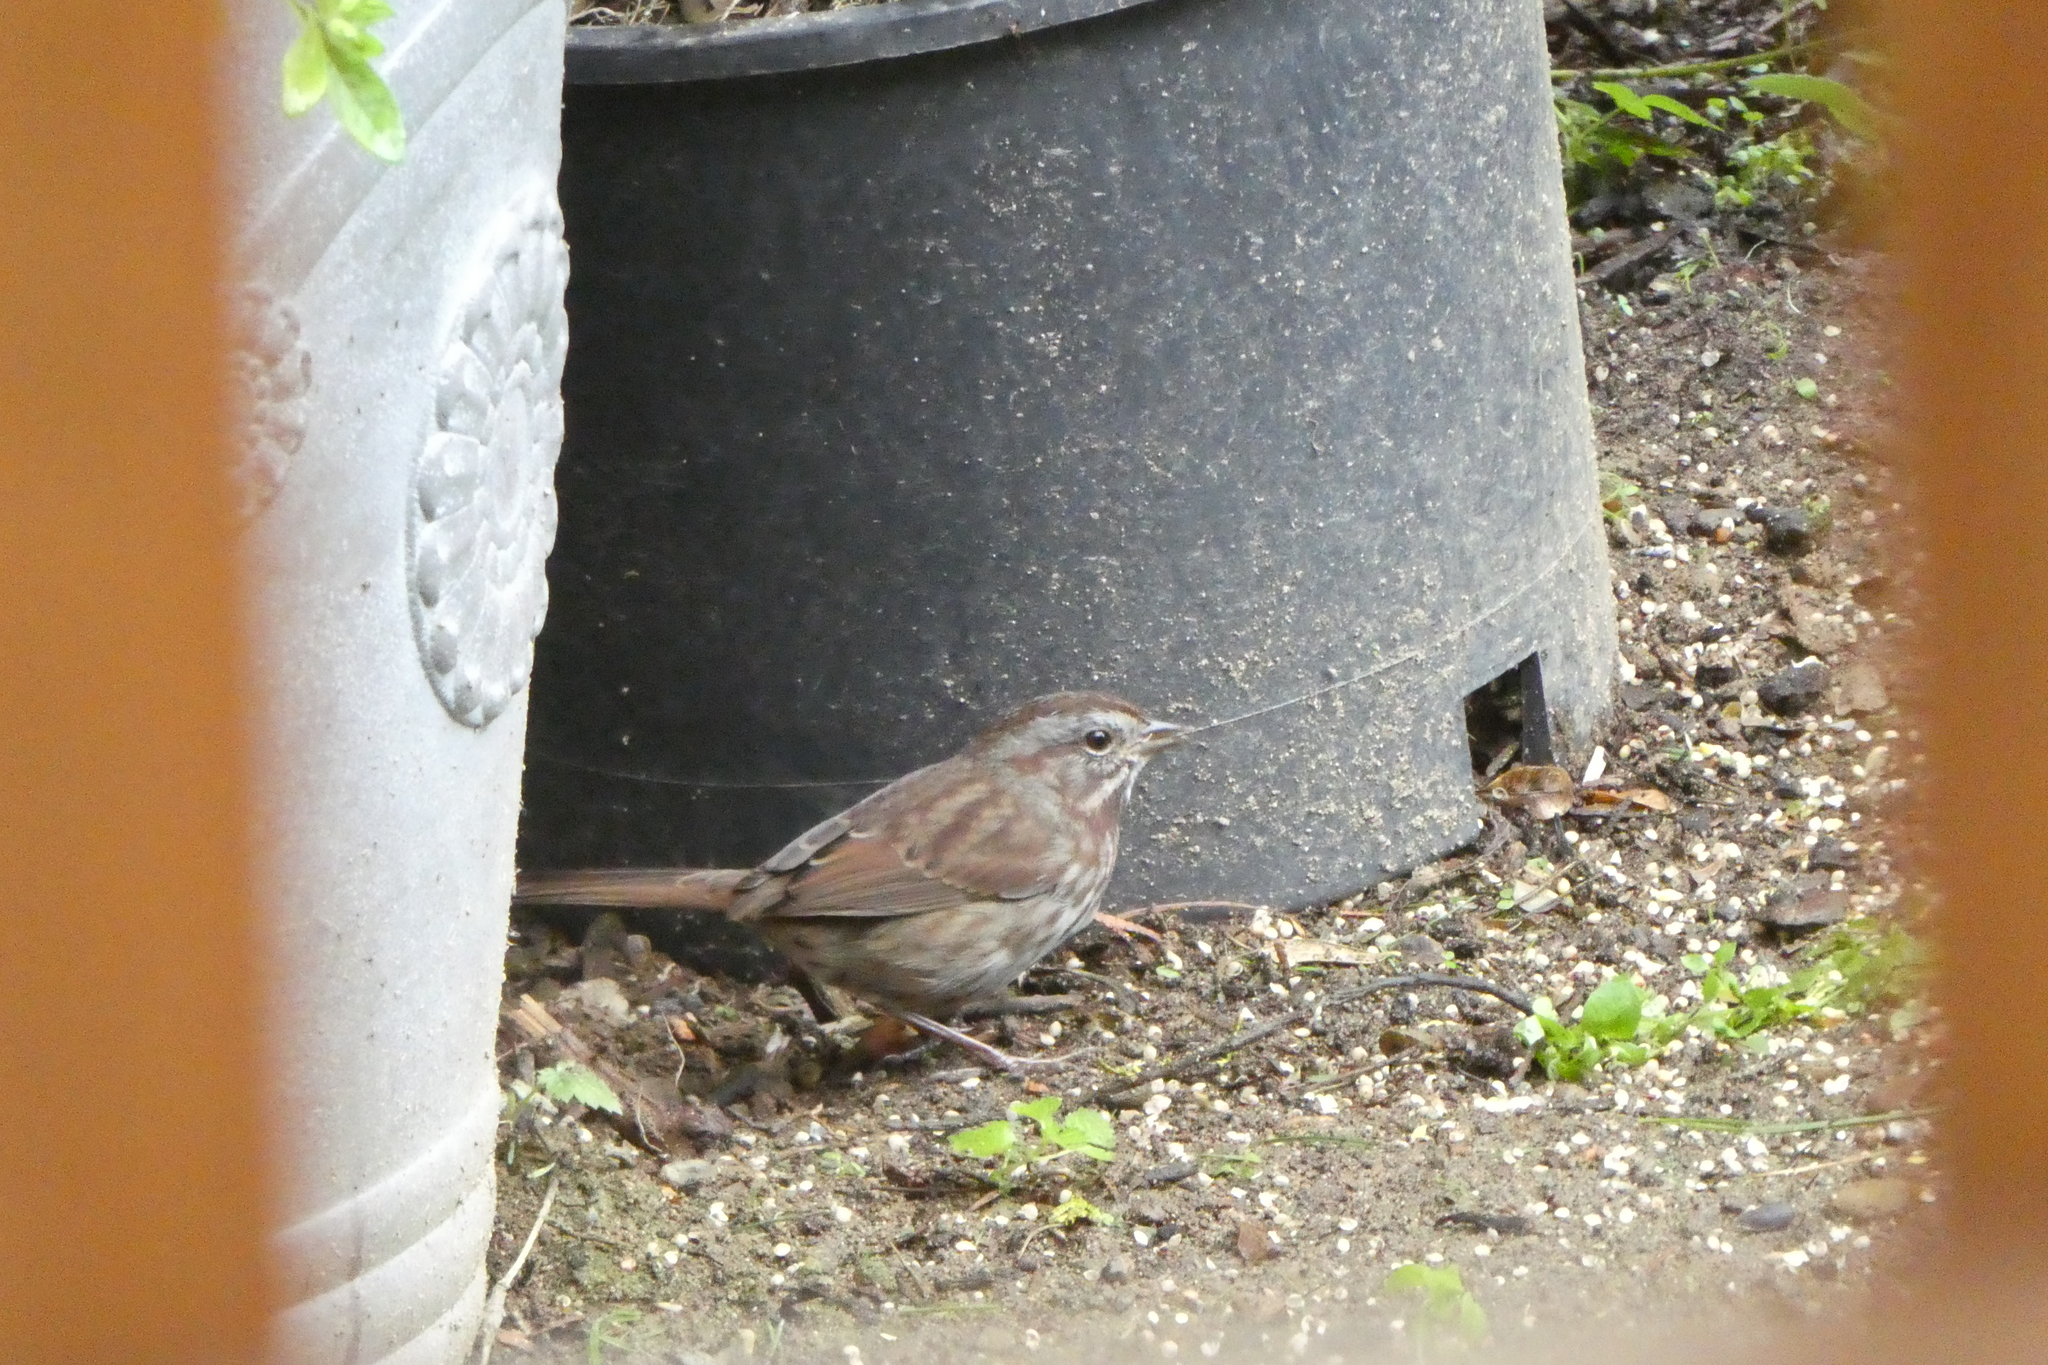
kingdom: Animalia
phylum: Chordata
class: Aves
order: Passeriformes
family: Passerellidae
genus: Melospiza
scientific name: Melospiza melodia
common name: Song sparrow
